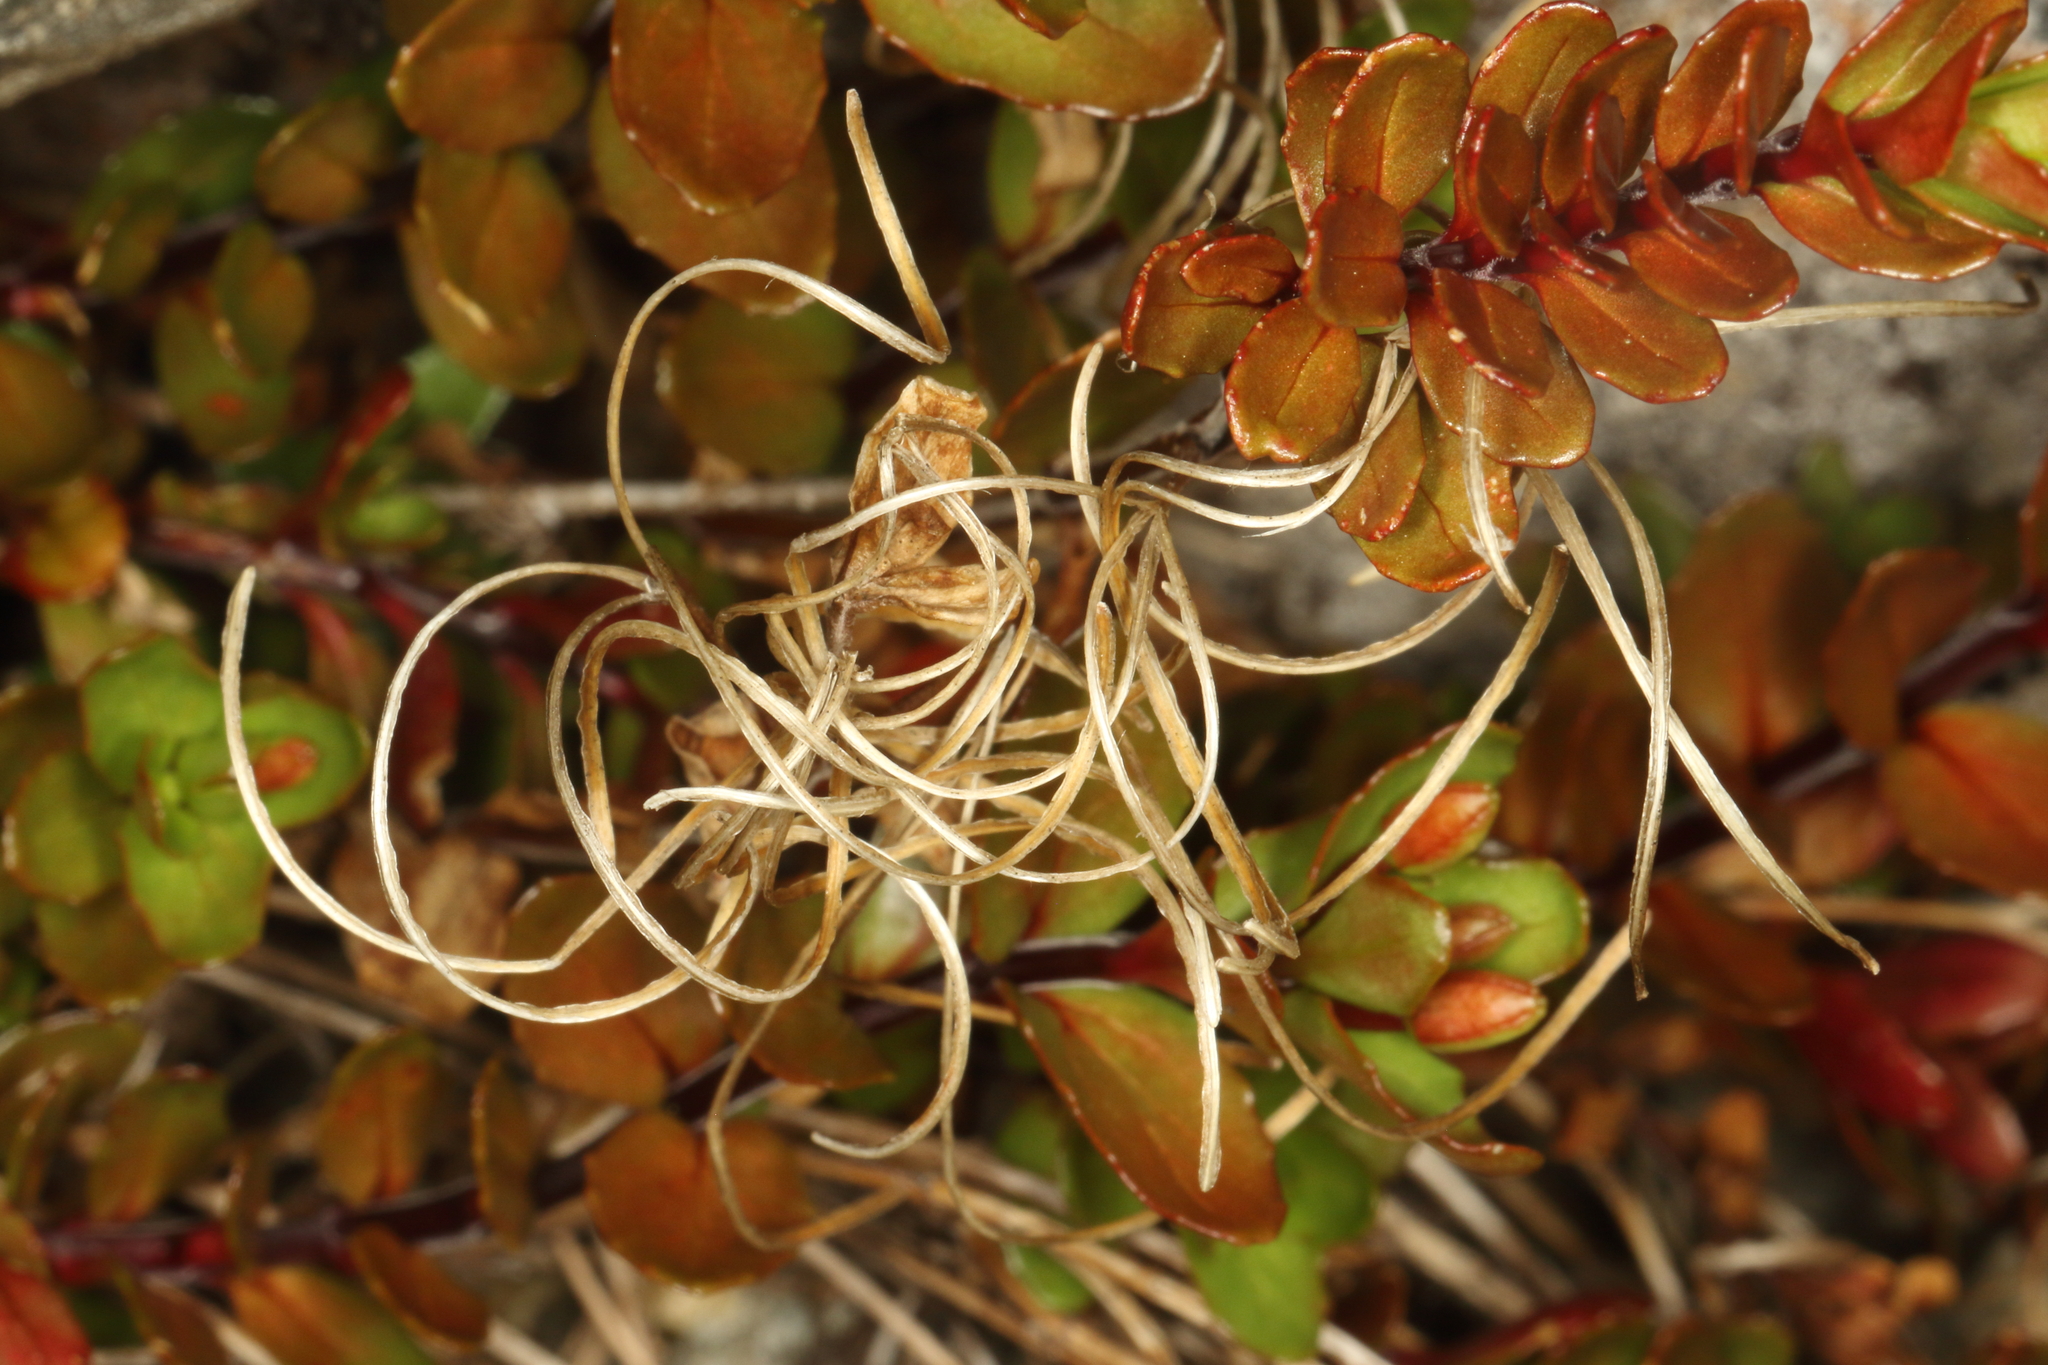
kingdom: Plantae
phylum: Tracheophyta
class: Magnoliopsida
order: Myrtales
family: Onagraceae
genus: Epilobium
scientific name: Epilobium glabellum
